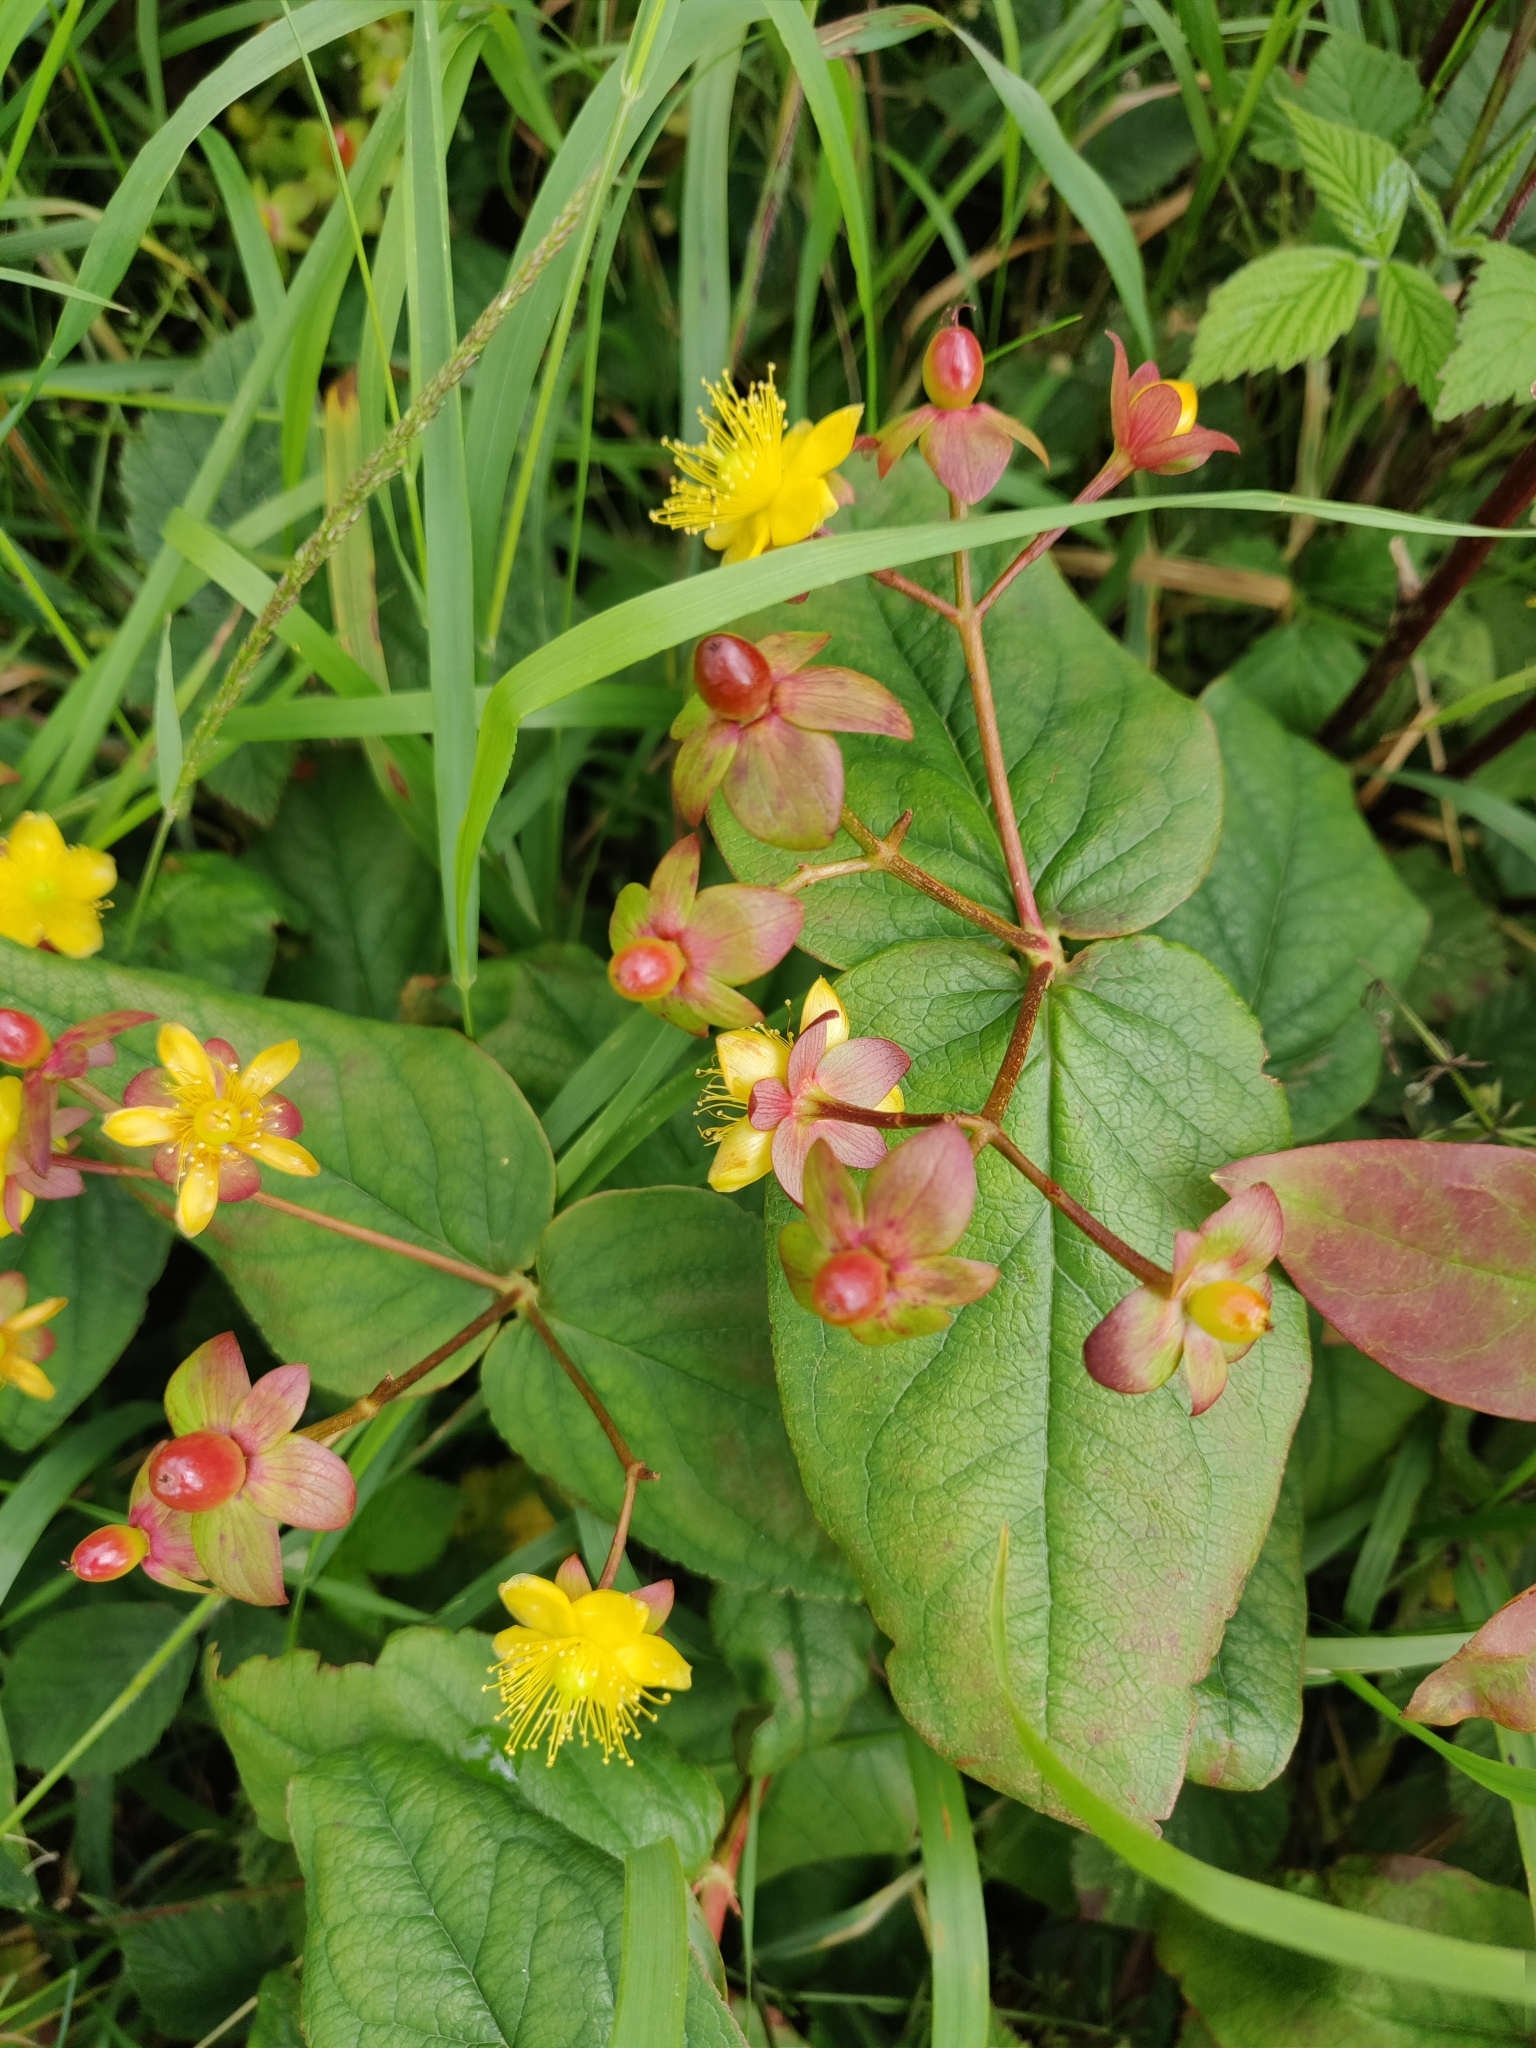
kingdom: Plantae
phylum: Tracheophyta
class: Magnoliopsida
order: Malpighiales
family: Hypericaceae
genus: Hypericum
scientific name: Hypericum androsaemum
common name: Sweet-amber
